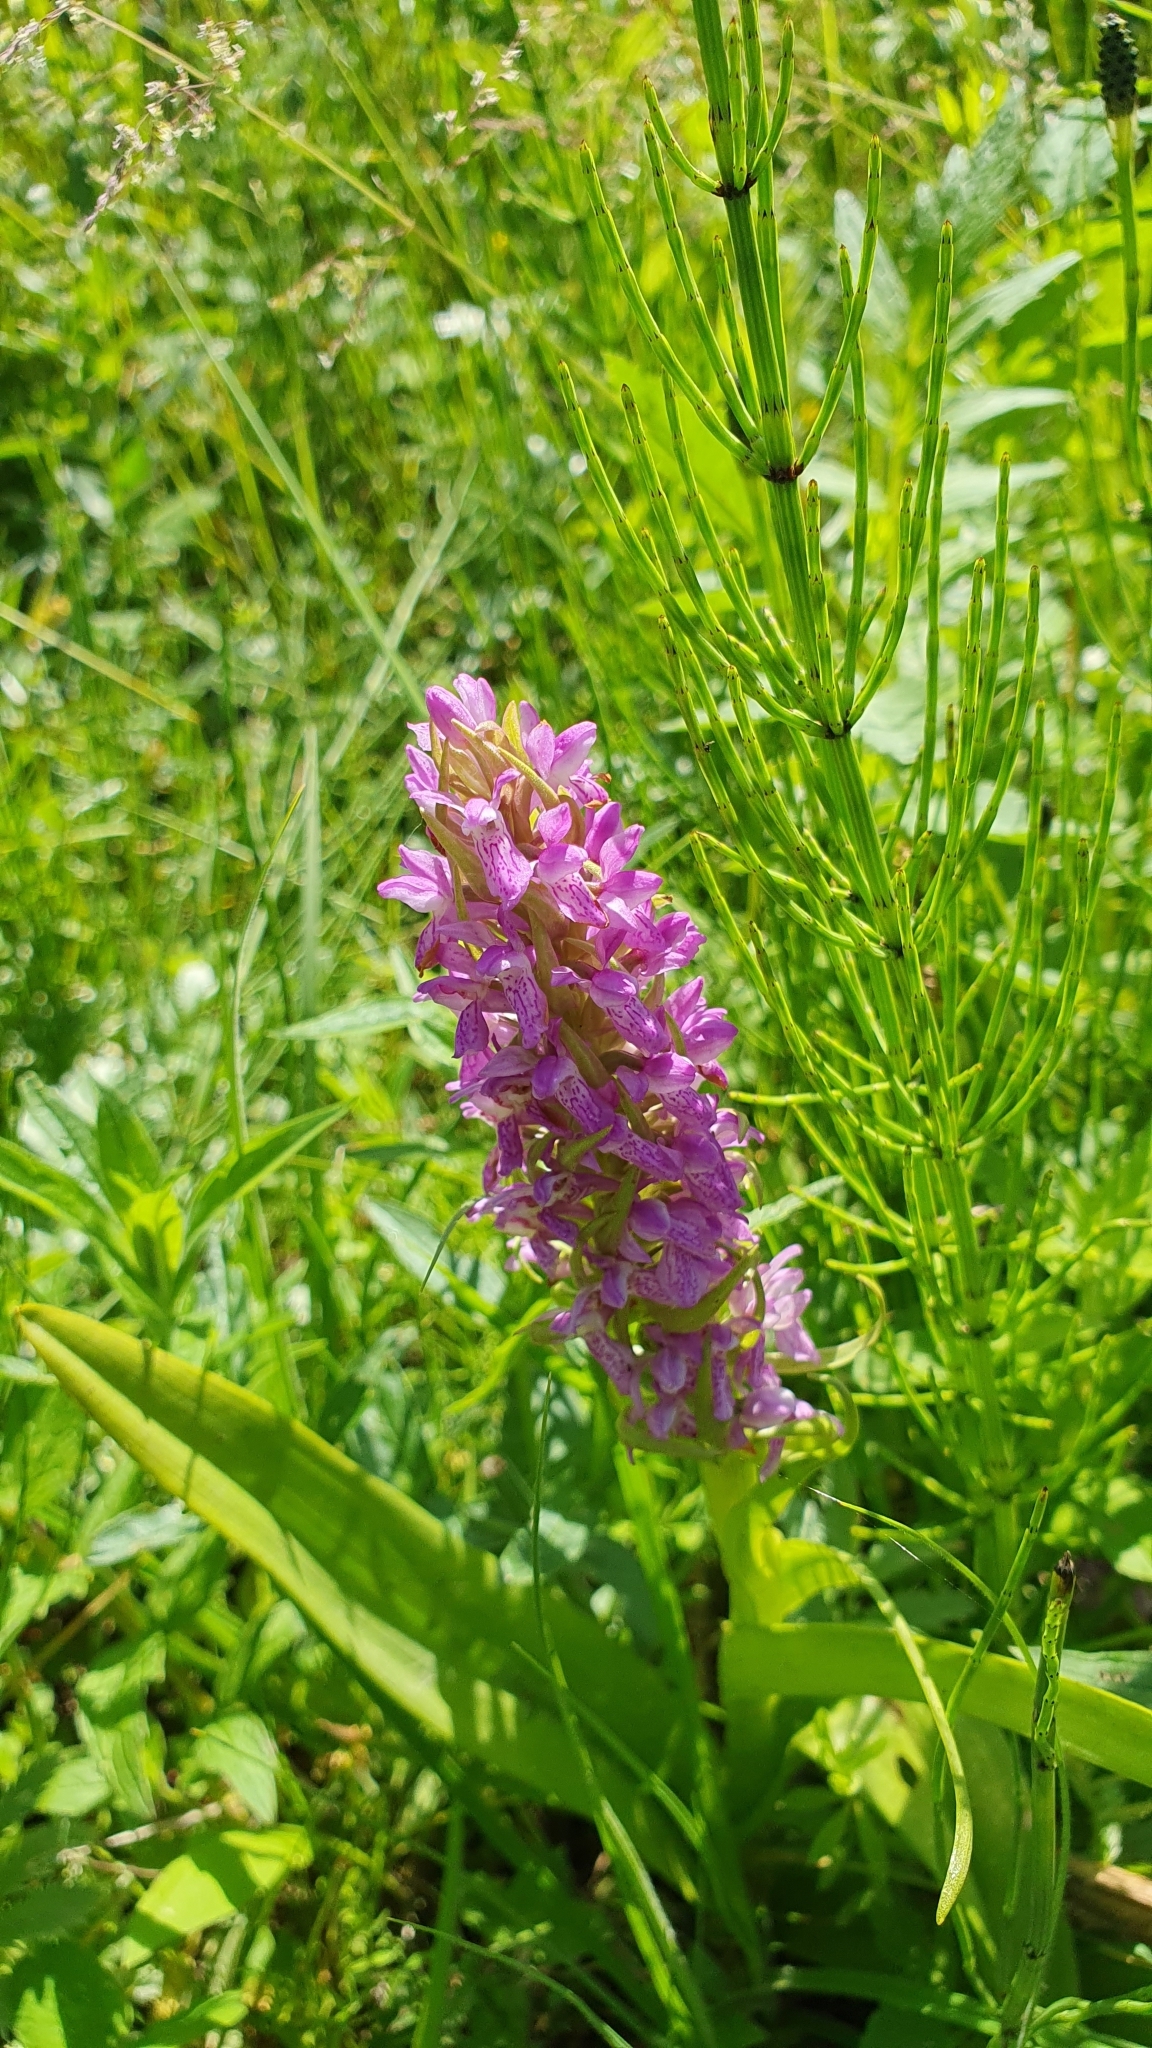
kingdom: Plantae
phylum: Tracheophyta
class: Liliopsida
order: Asparagales
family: Orchidaceae
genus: Dactylorhiza
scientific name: Dactylorhiza incarnata
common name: Early marsh-orchid
